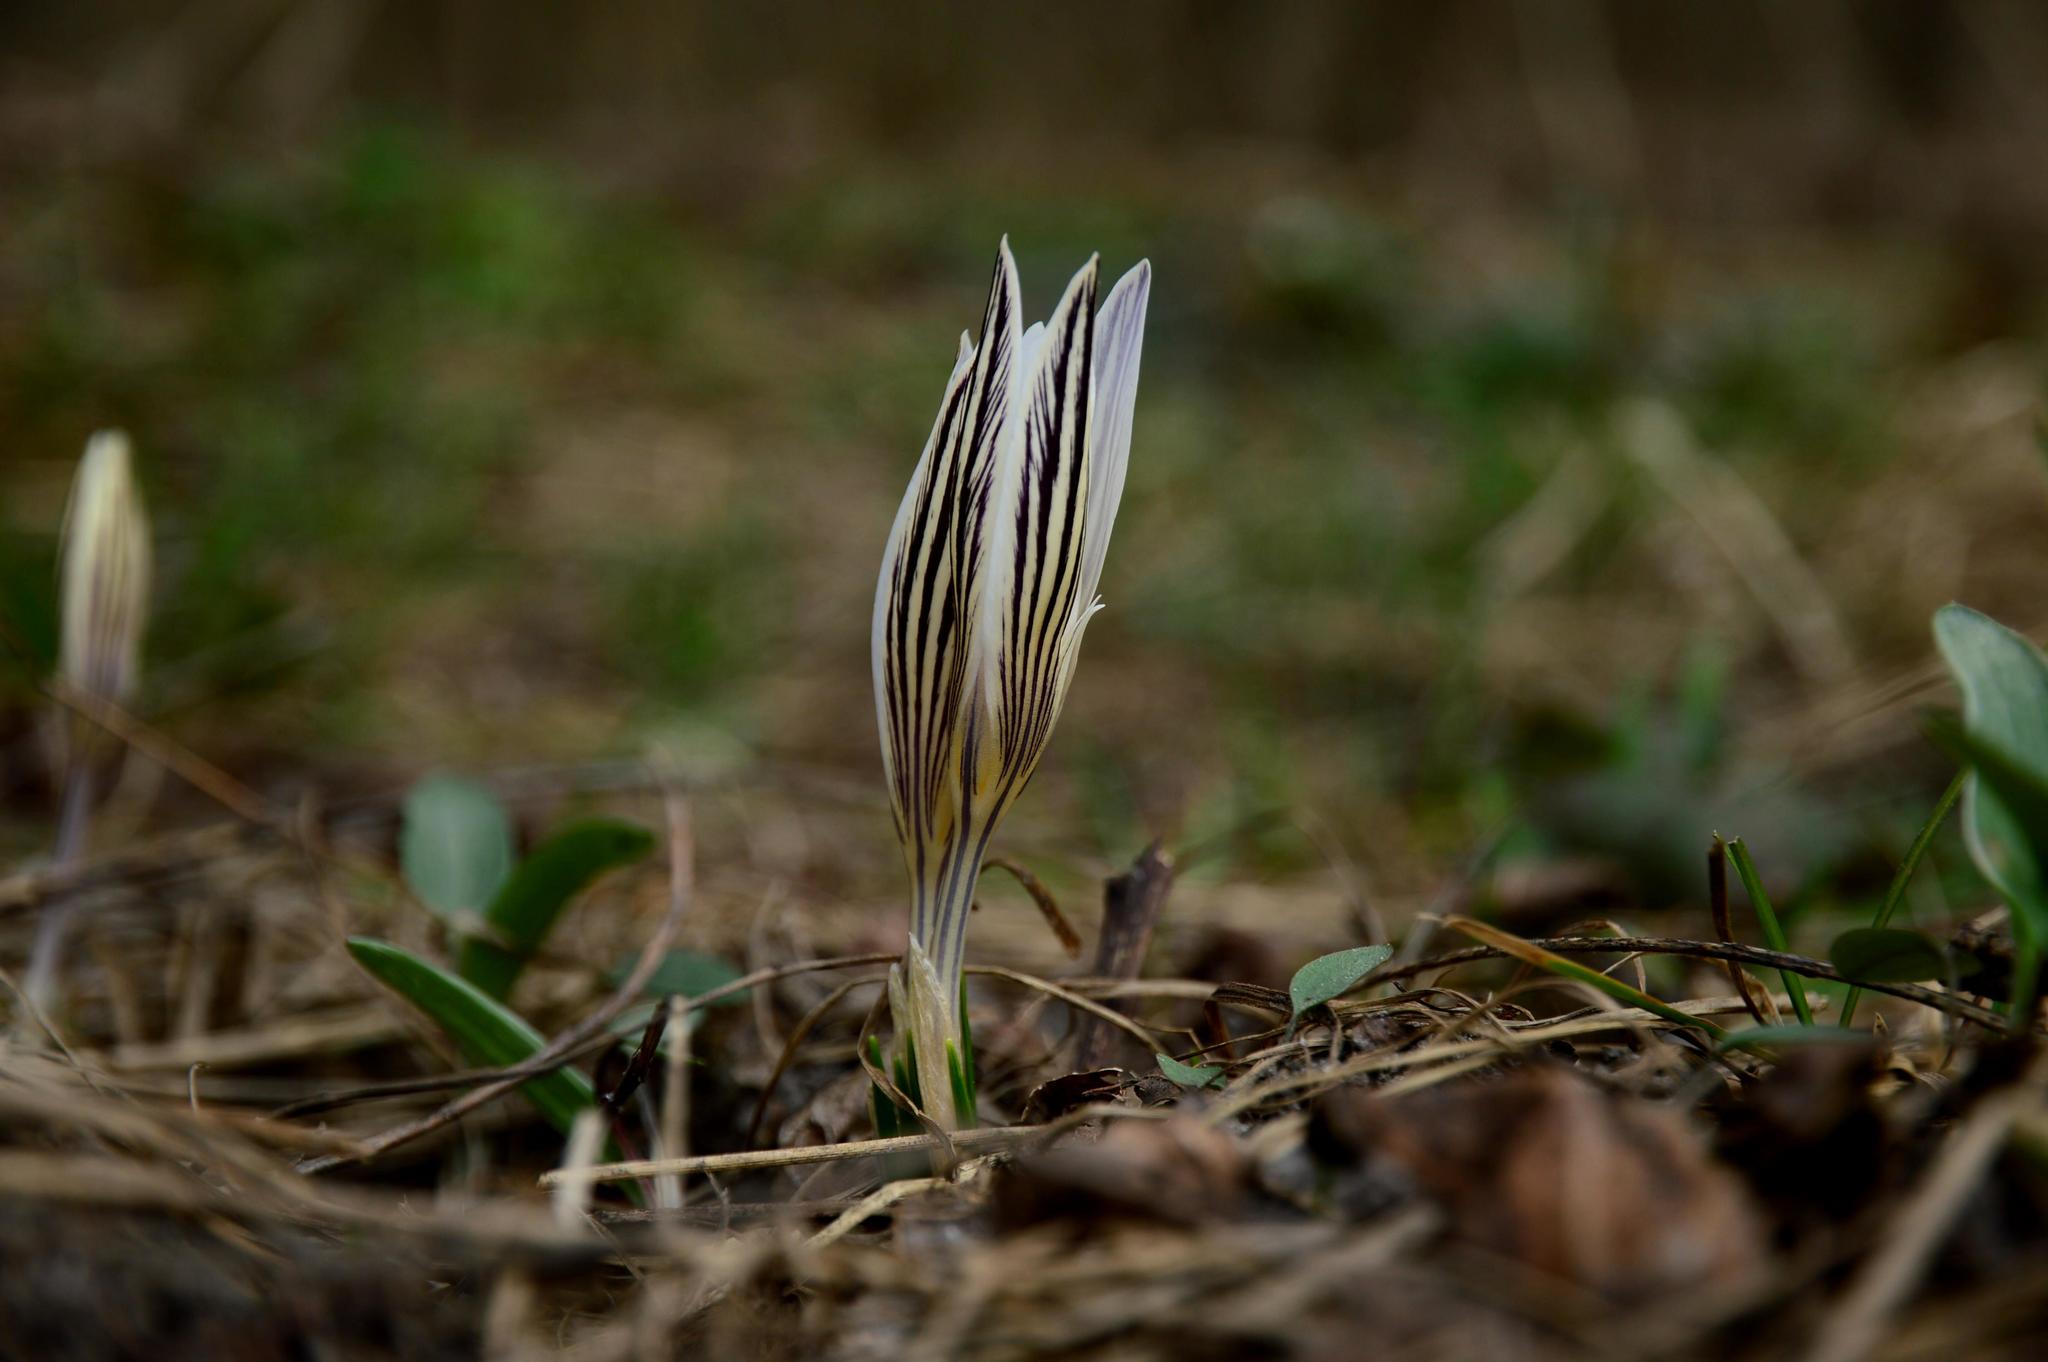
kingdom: Plantae
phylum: Tracheophyta
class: Liliopsida
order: Asparagales
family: Iridaceae
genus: Crocus
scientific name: Crocus reticulatus
